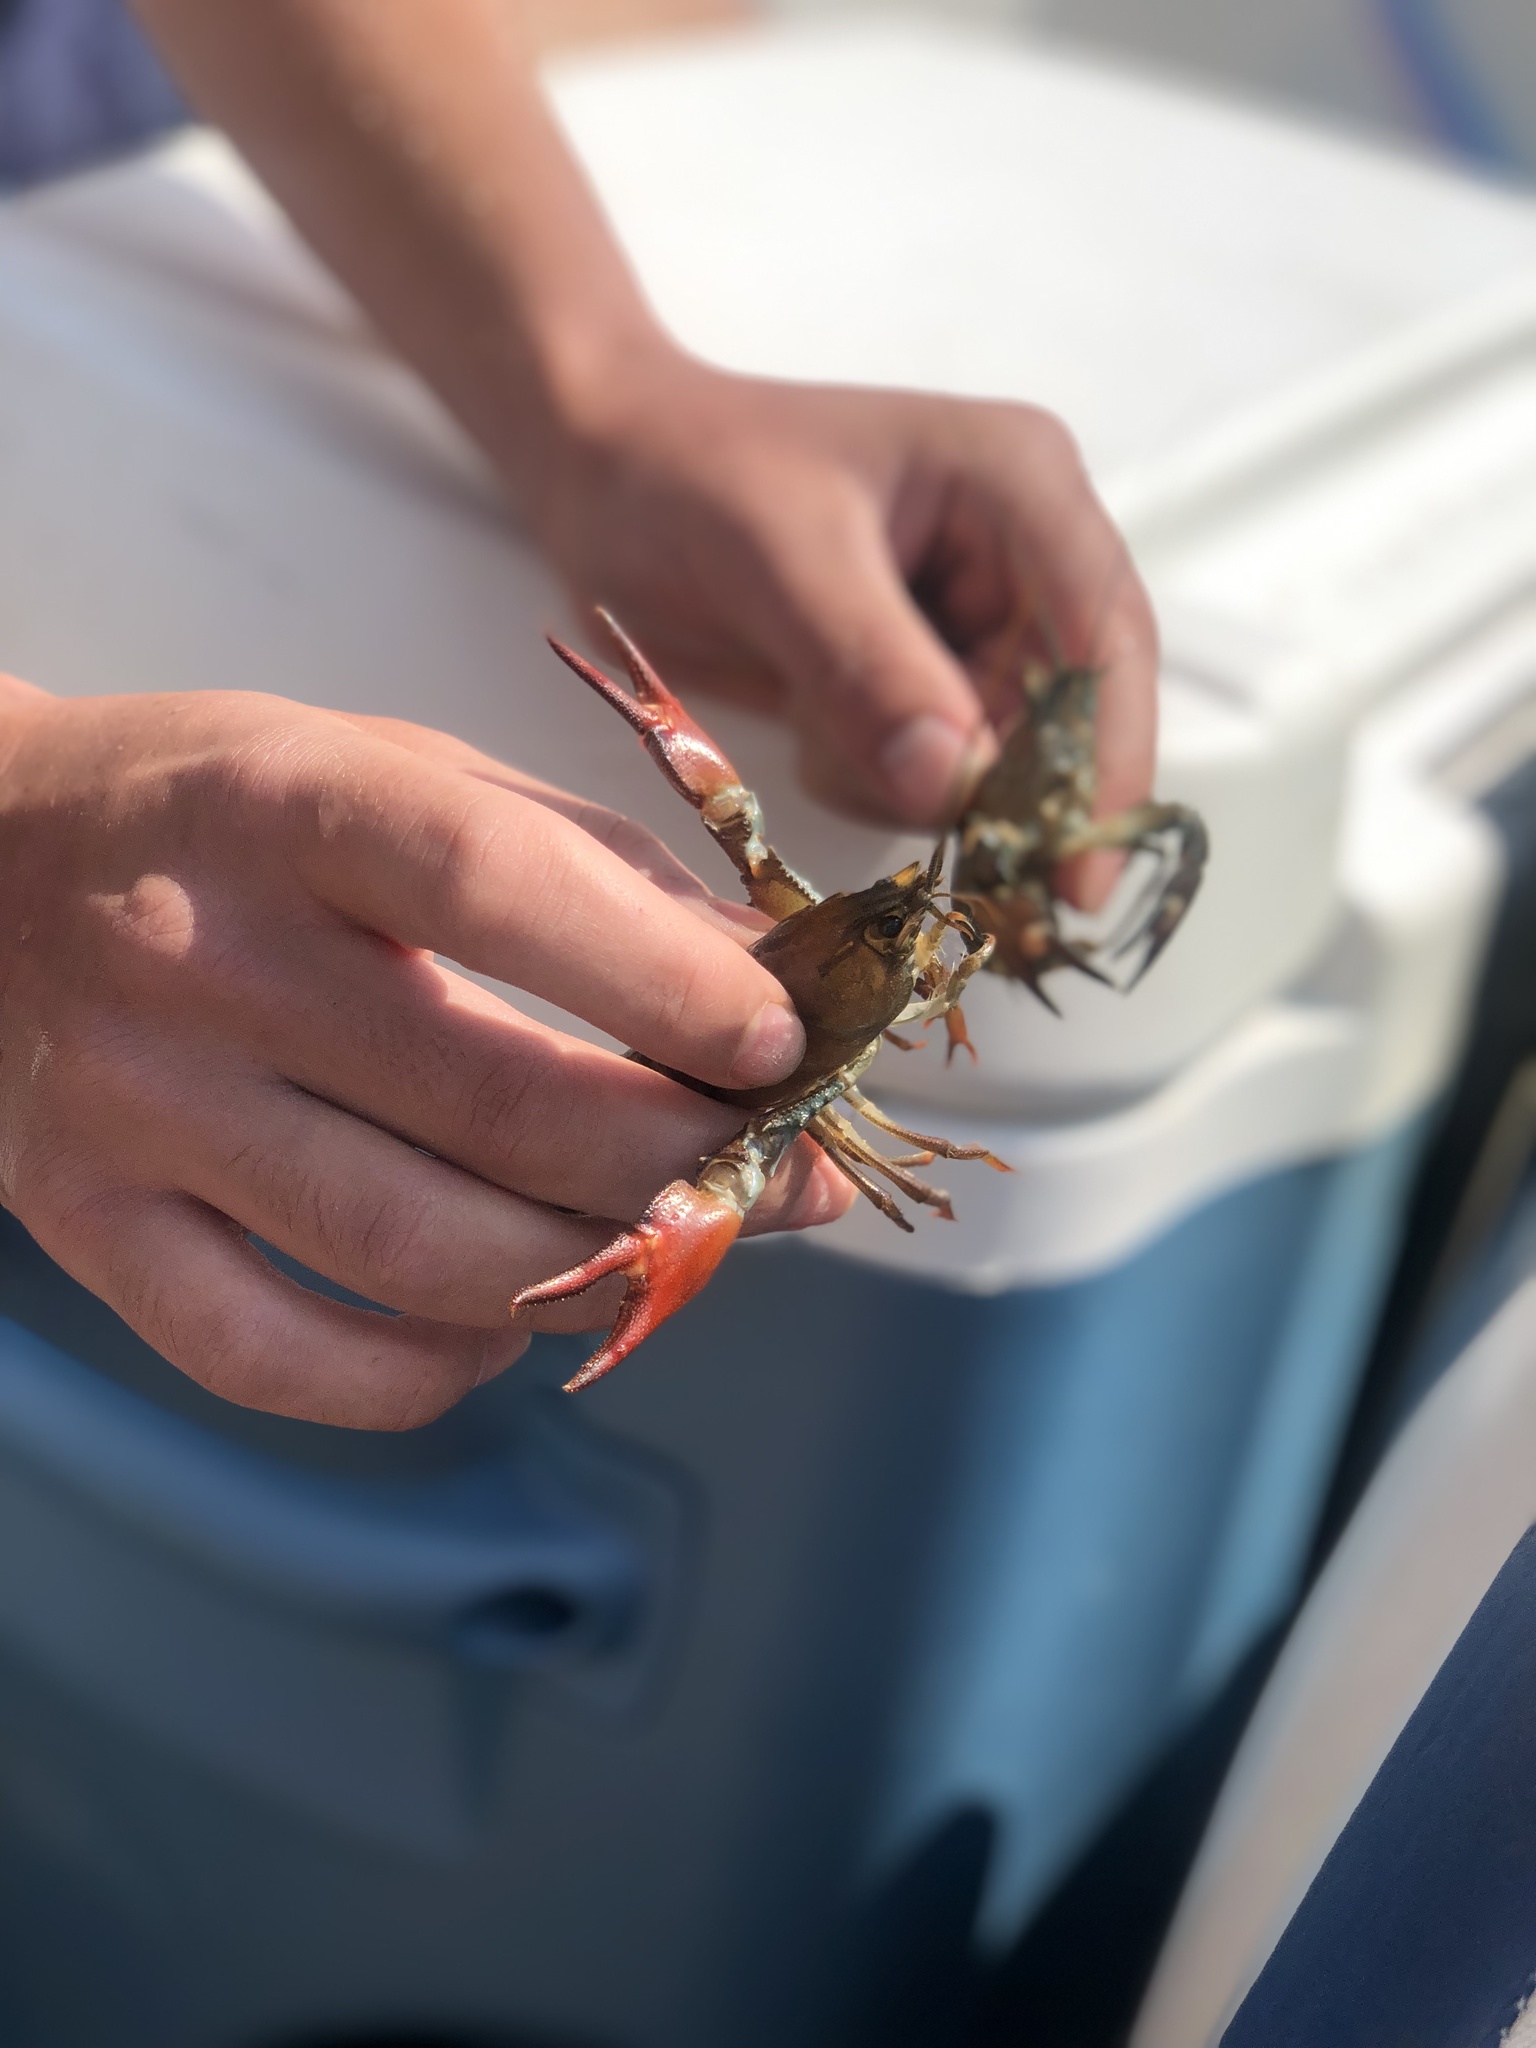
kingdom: Animalia
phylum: Arthropoda
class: Malacostraca
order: Decapoda
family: Astacidae
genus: Pacifastacus
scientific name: Pacifastacus leniusculus
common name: Signal crayfish
